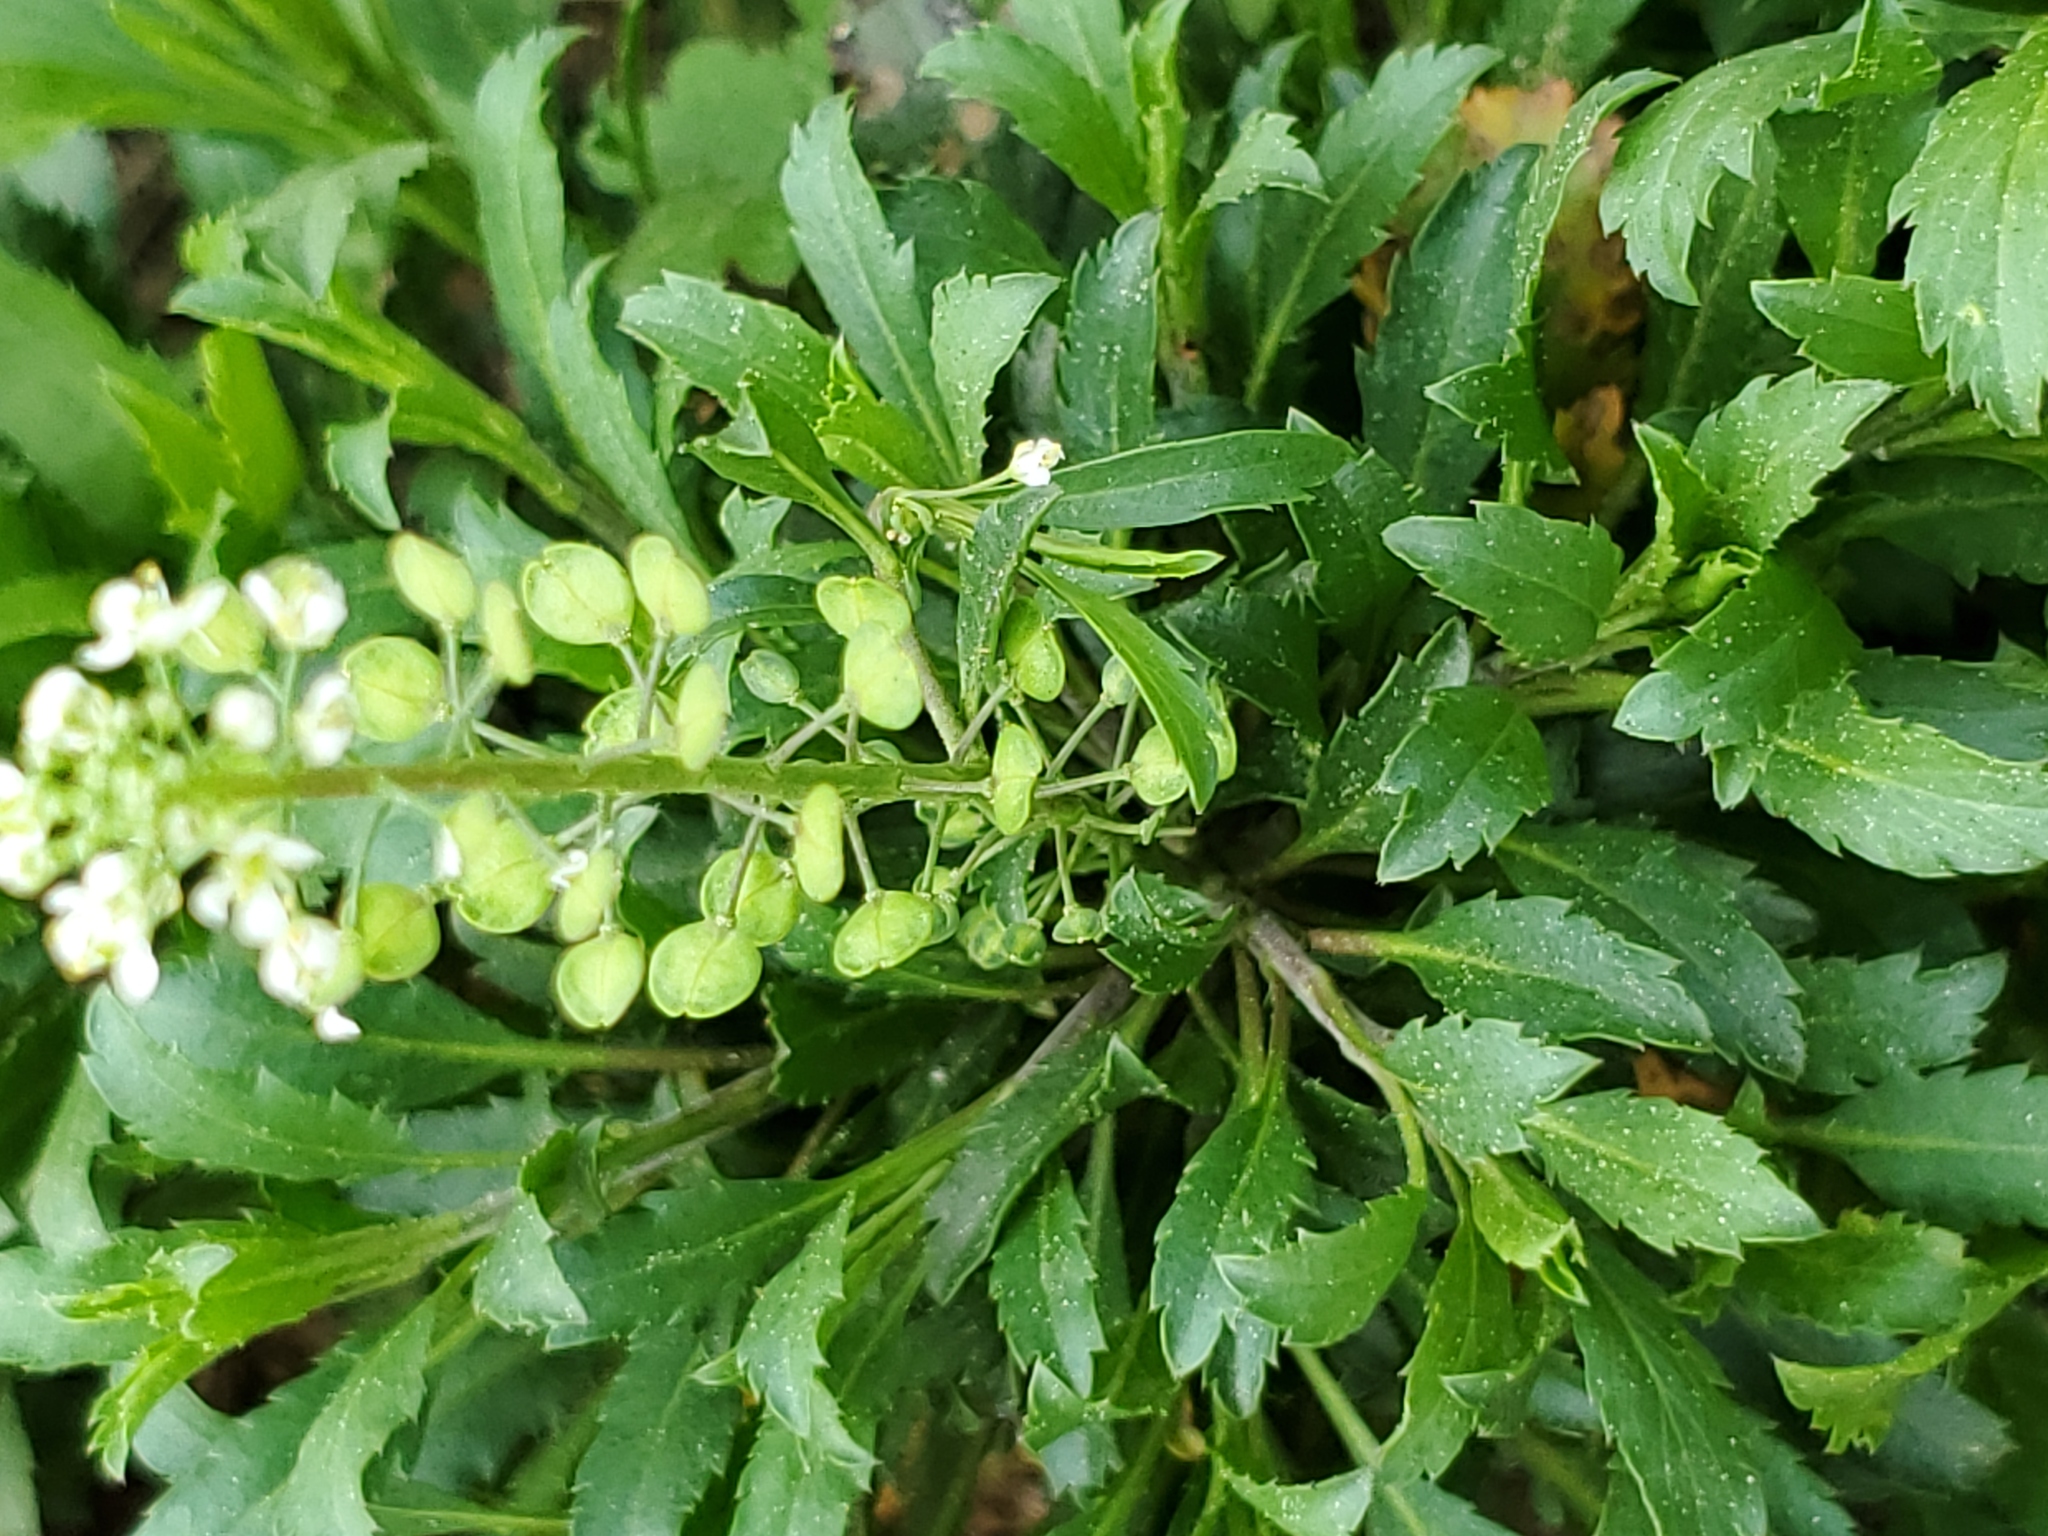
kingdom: Plantae
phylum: Tracheophyta
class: Magnoliopsida
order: Brassicales
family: Brassicaceae
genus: Lepidium
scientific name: Lepidium virginicum
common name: Least pepperwort
